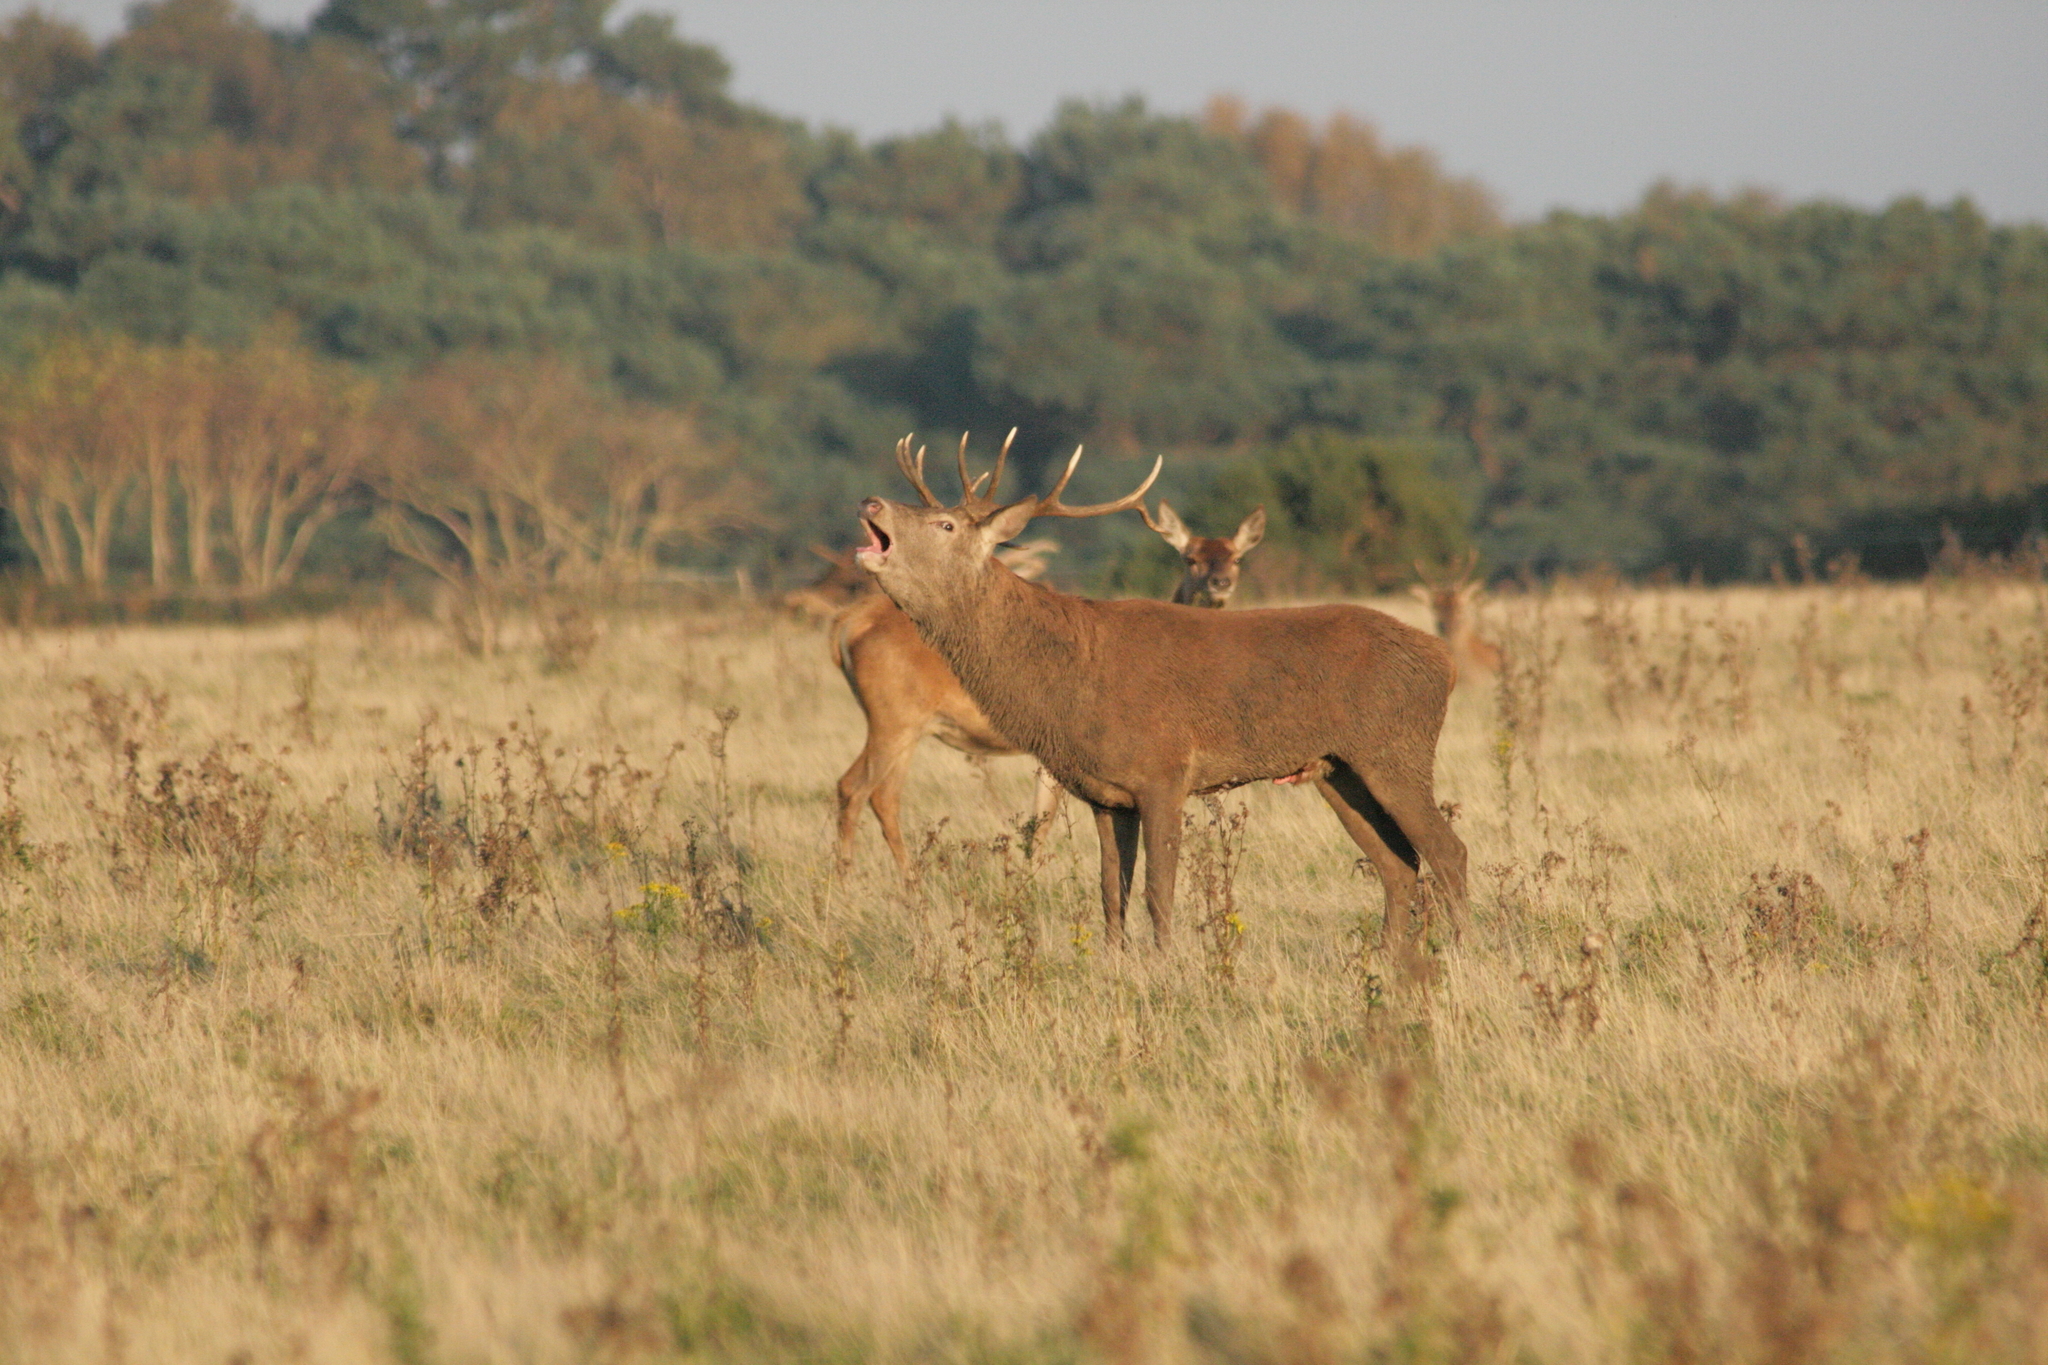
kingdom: Animalia
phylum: Chordata
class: Mammalia
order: Artiodactyla
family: Cervidae
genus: Cervus
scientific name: Cervus elaphus
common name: Red deer
